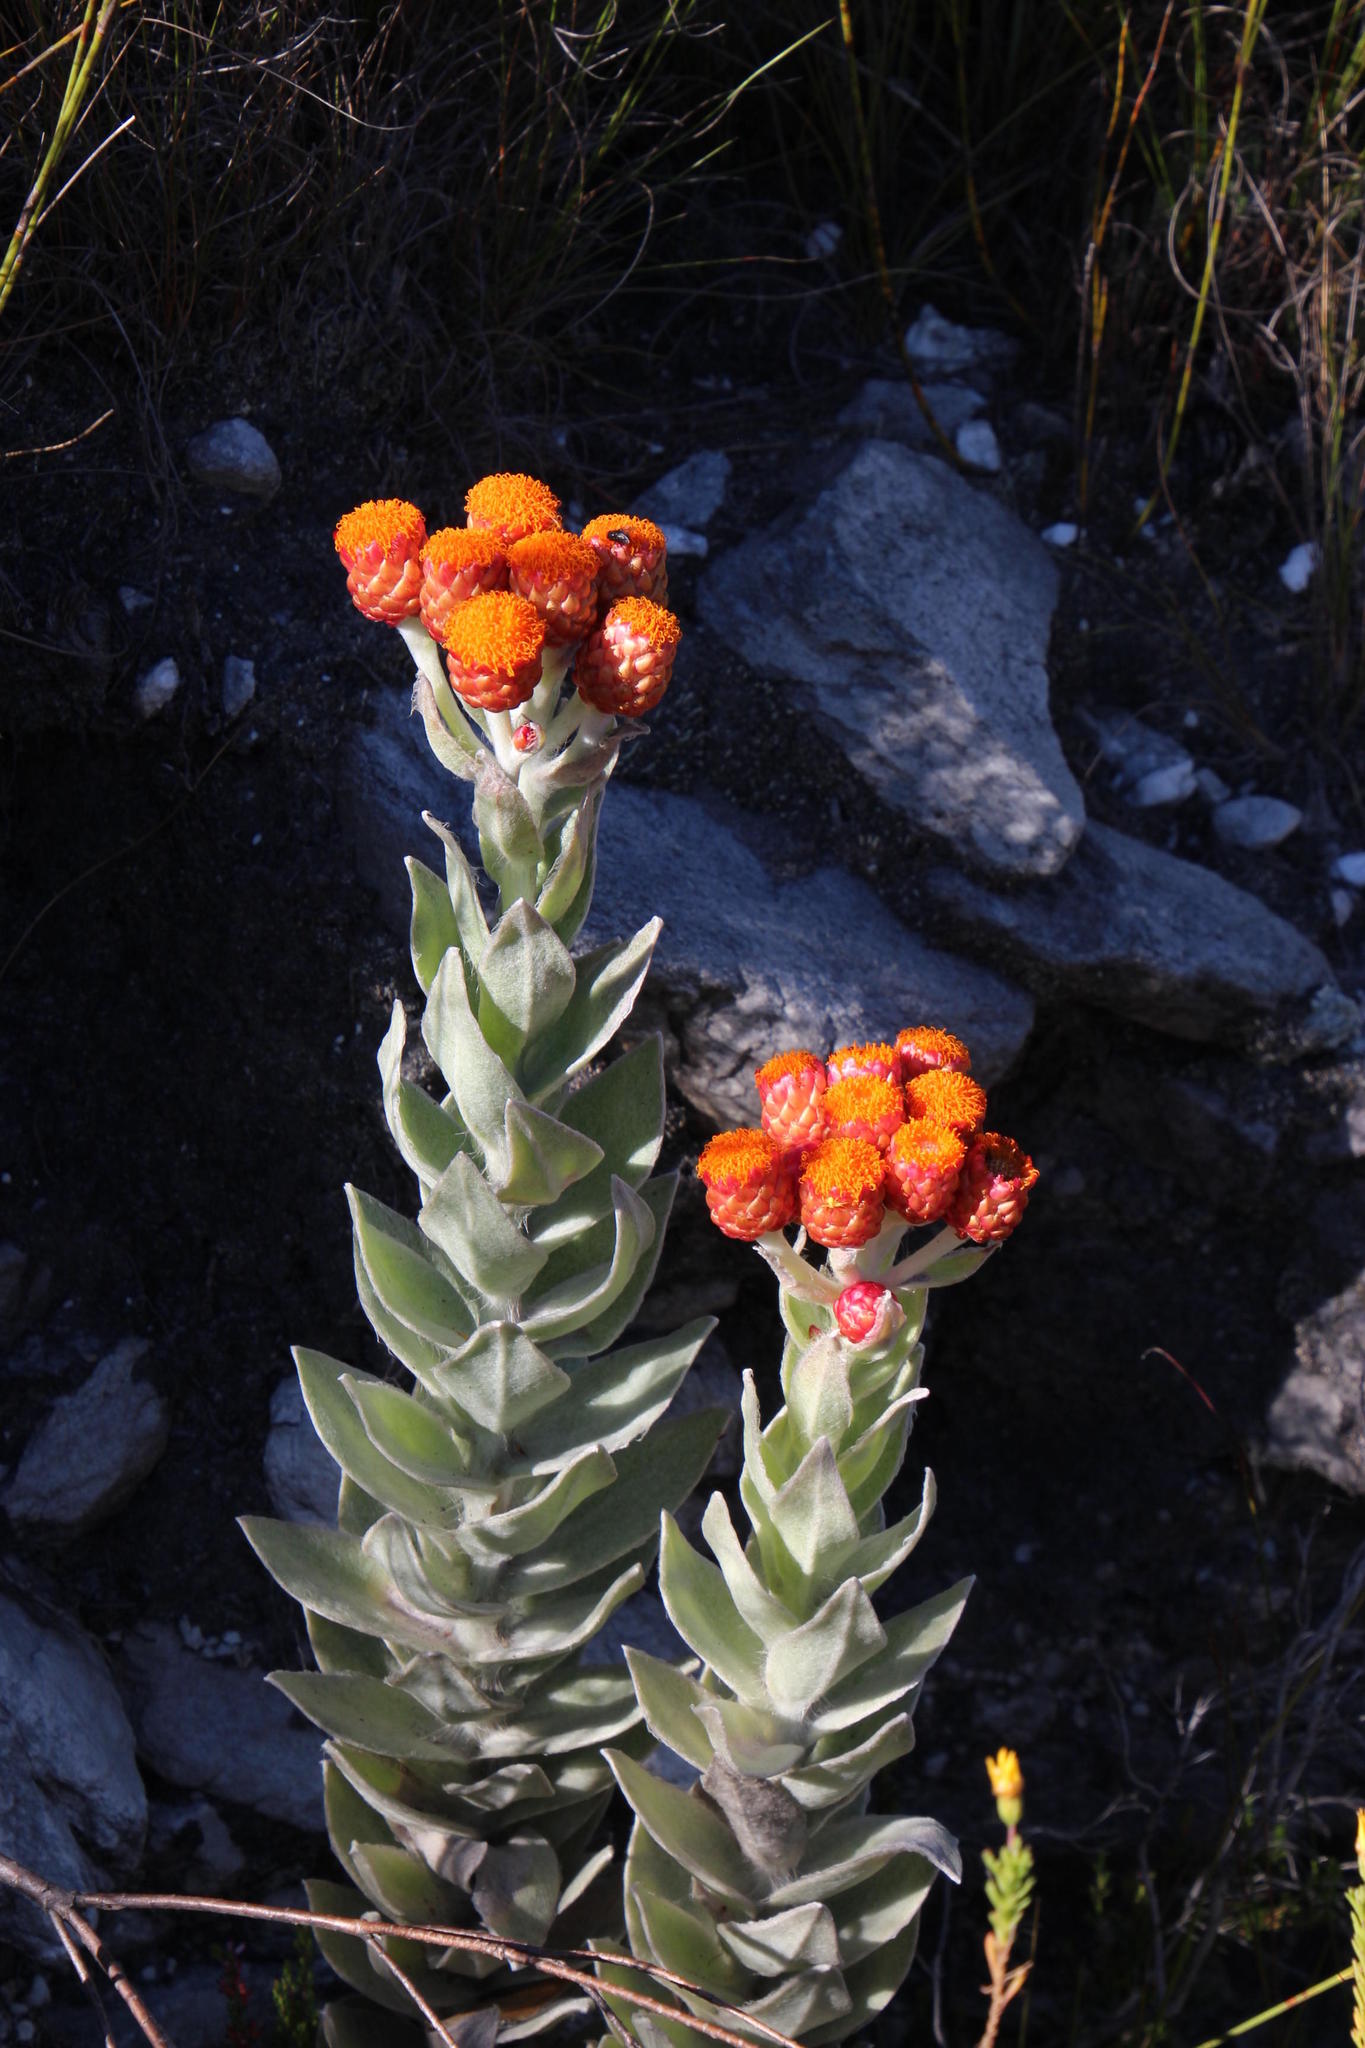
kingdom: Plantae
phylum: Tracheophyta
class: Magnoliopsida
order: Asterales
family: Asteraceae
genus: Syncarpha
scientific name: Syncarpha eximia
